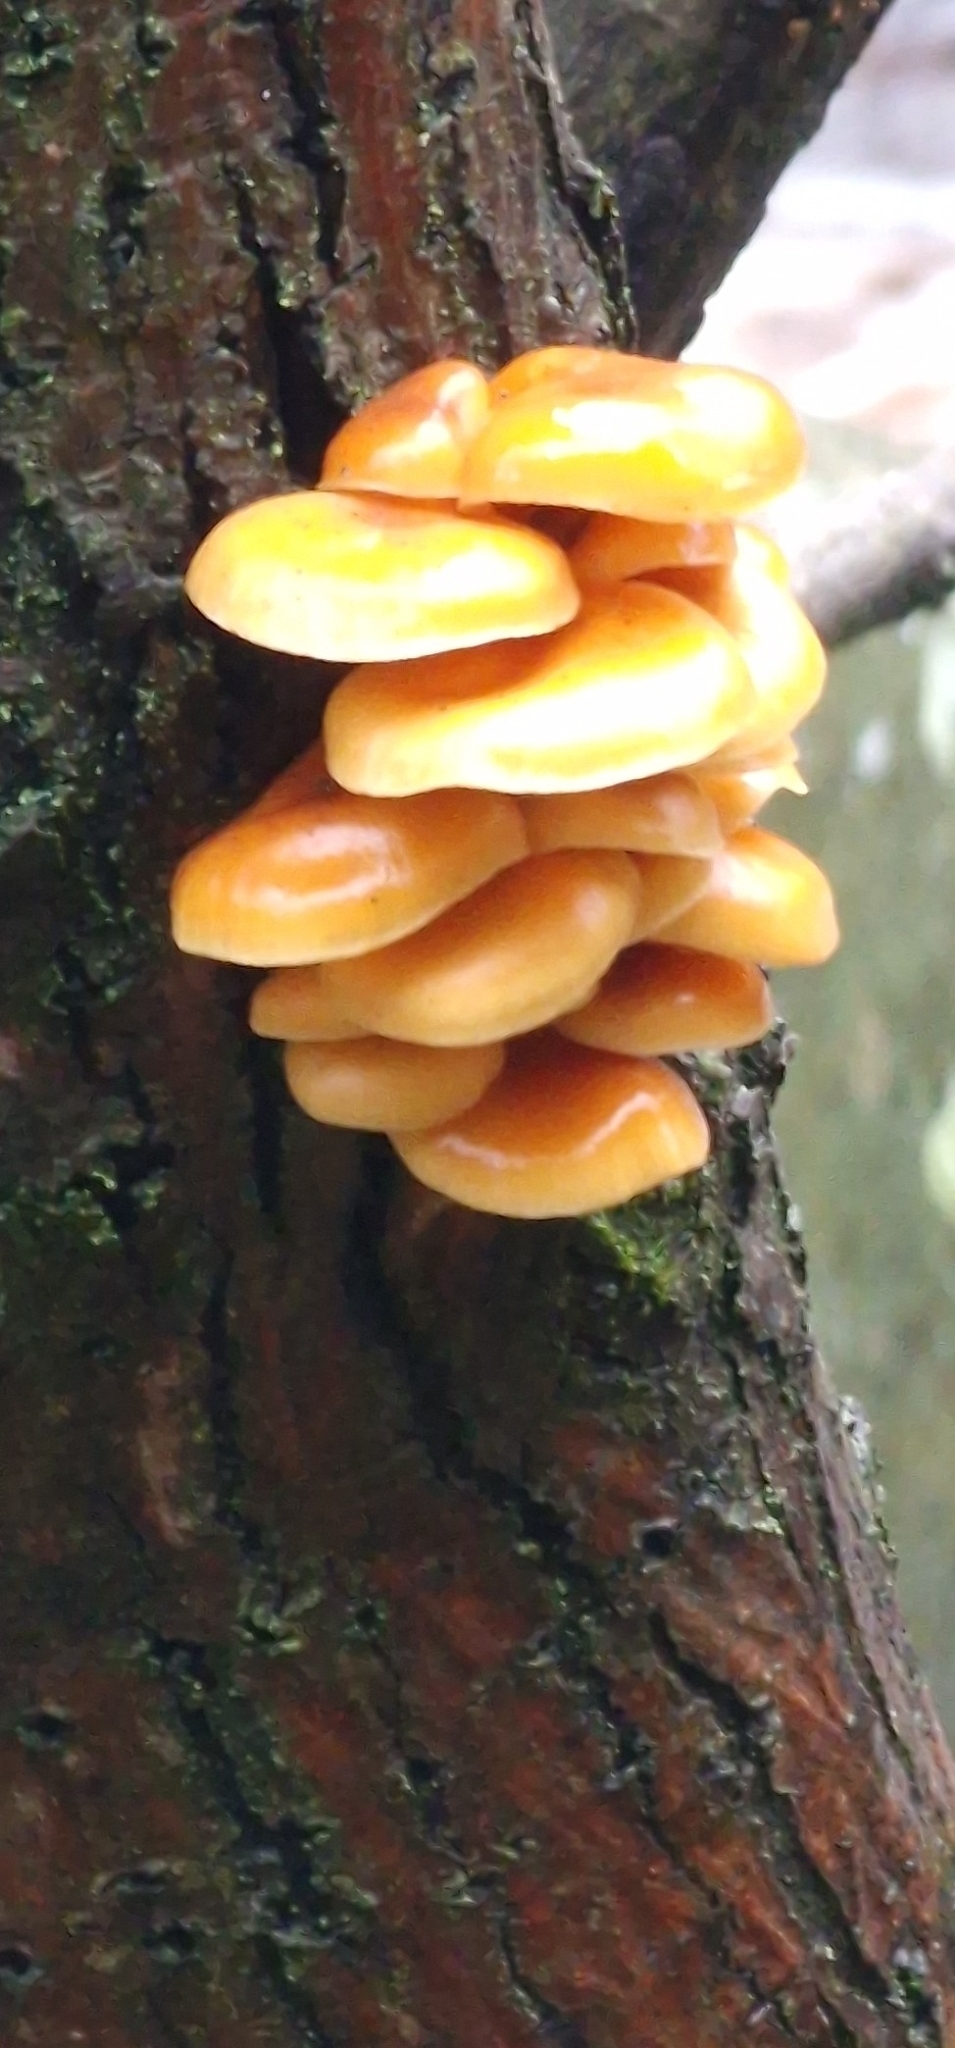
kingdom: Fungi
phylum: Basidiomycota
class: Agaricomycetes
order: Agaricales
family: Physalacriaceae
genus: Flammulina
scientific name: Flammulina
